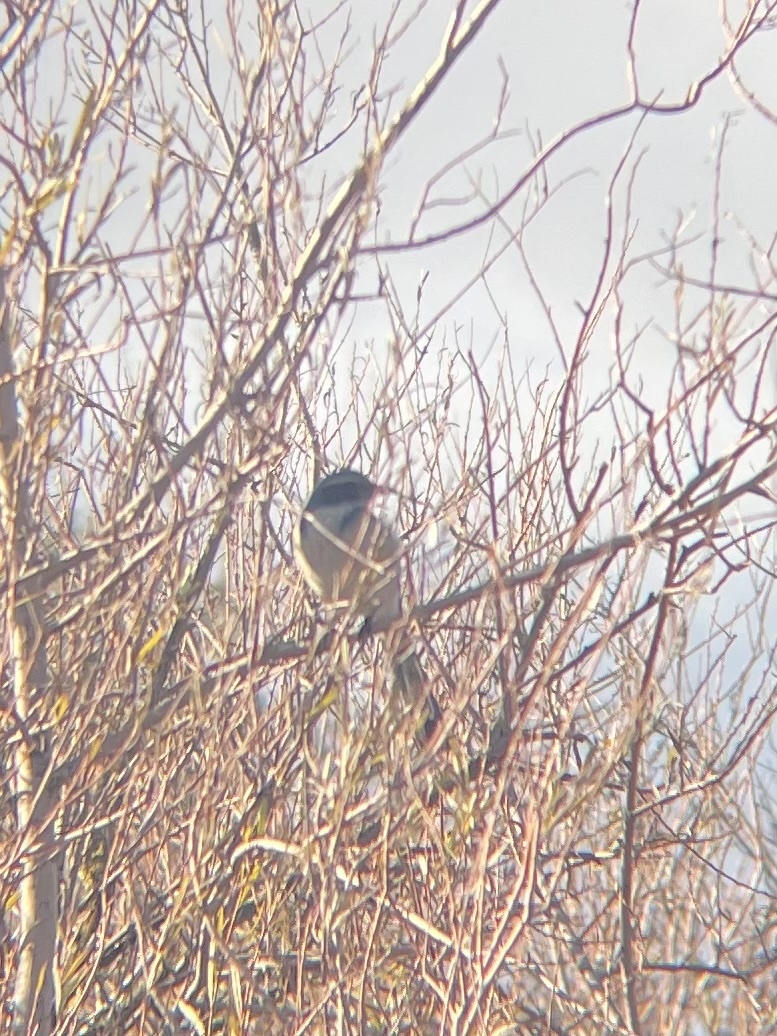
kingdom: Animalia
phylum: Chordata
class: Aves
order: Passeriformes
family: Corvidae
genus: Aphelocoma
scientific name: Aphelocoma californica
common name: California scrub-jay
